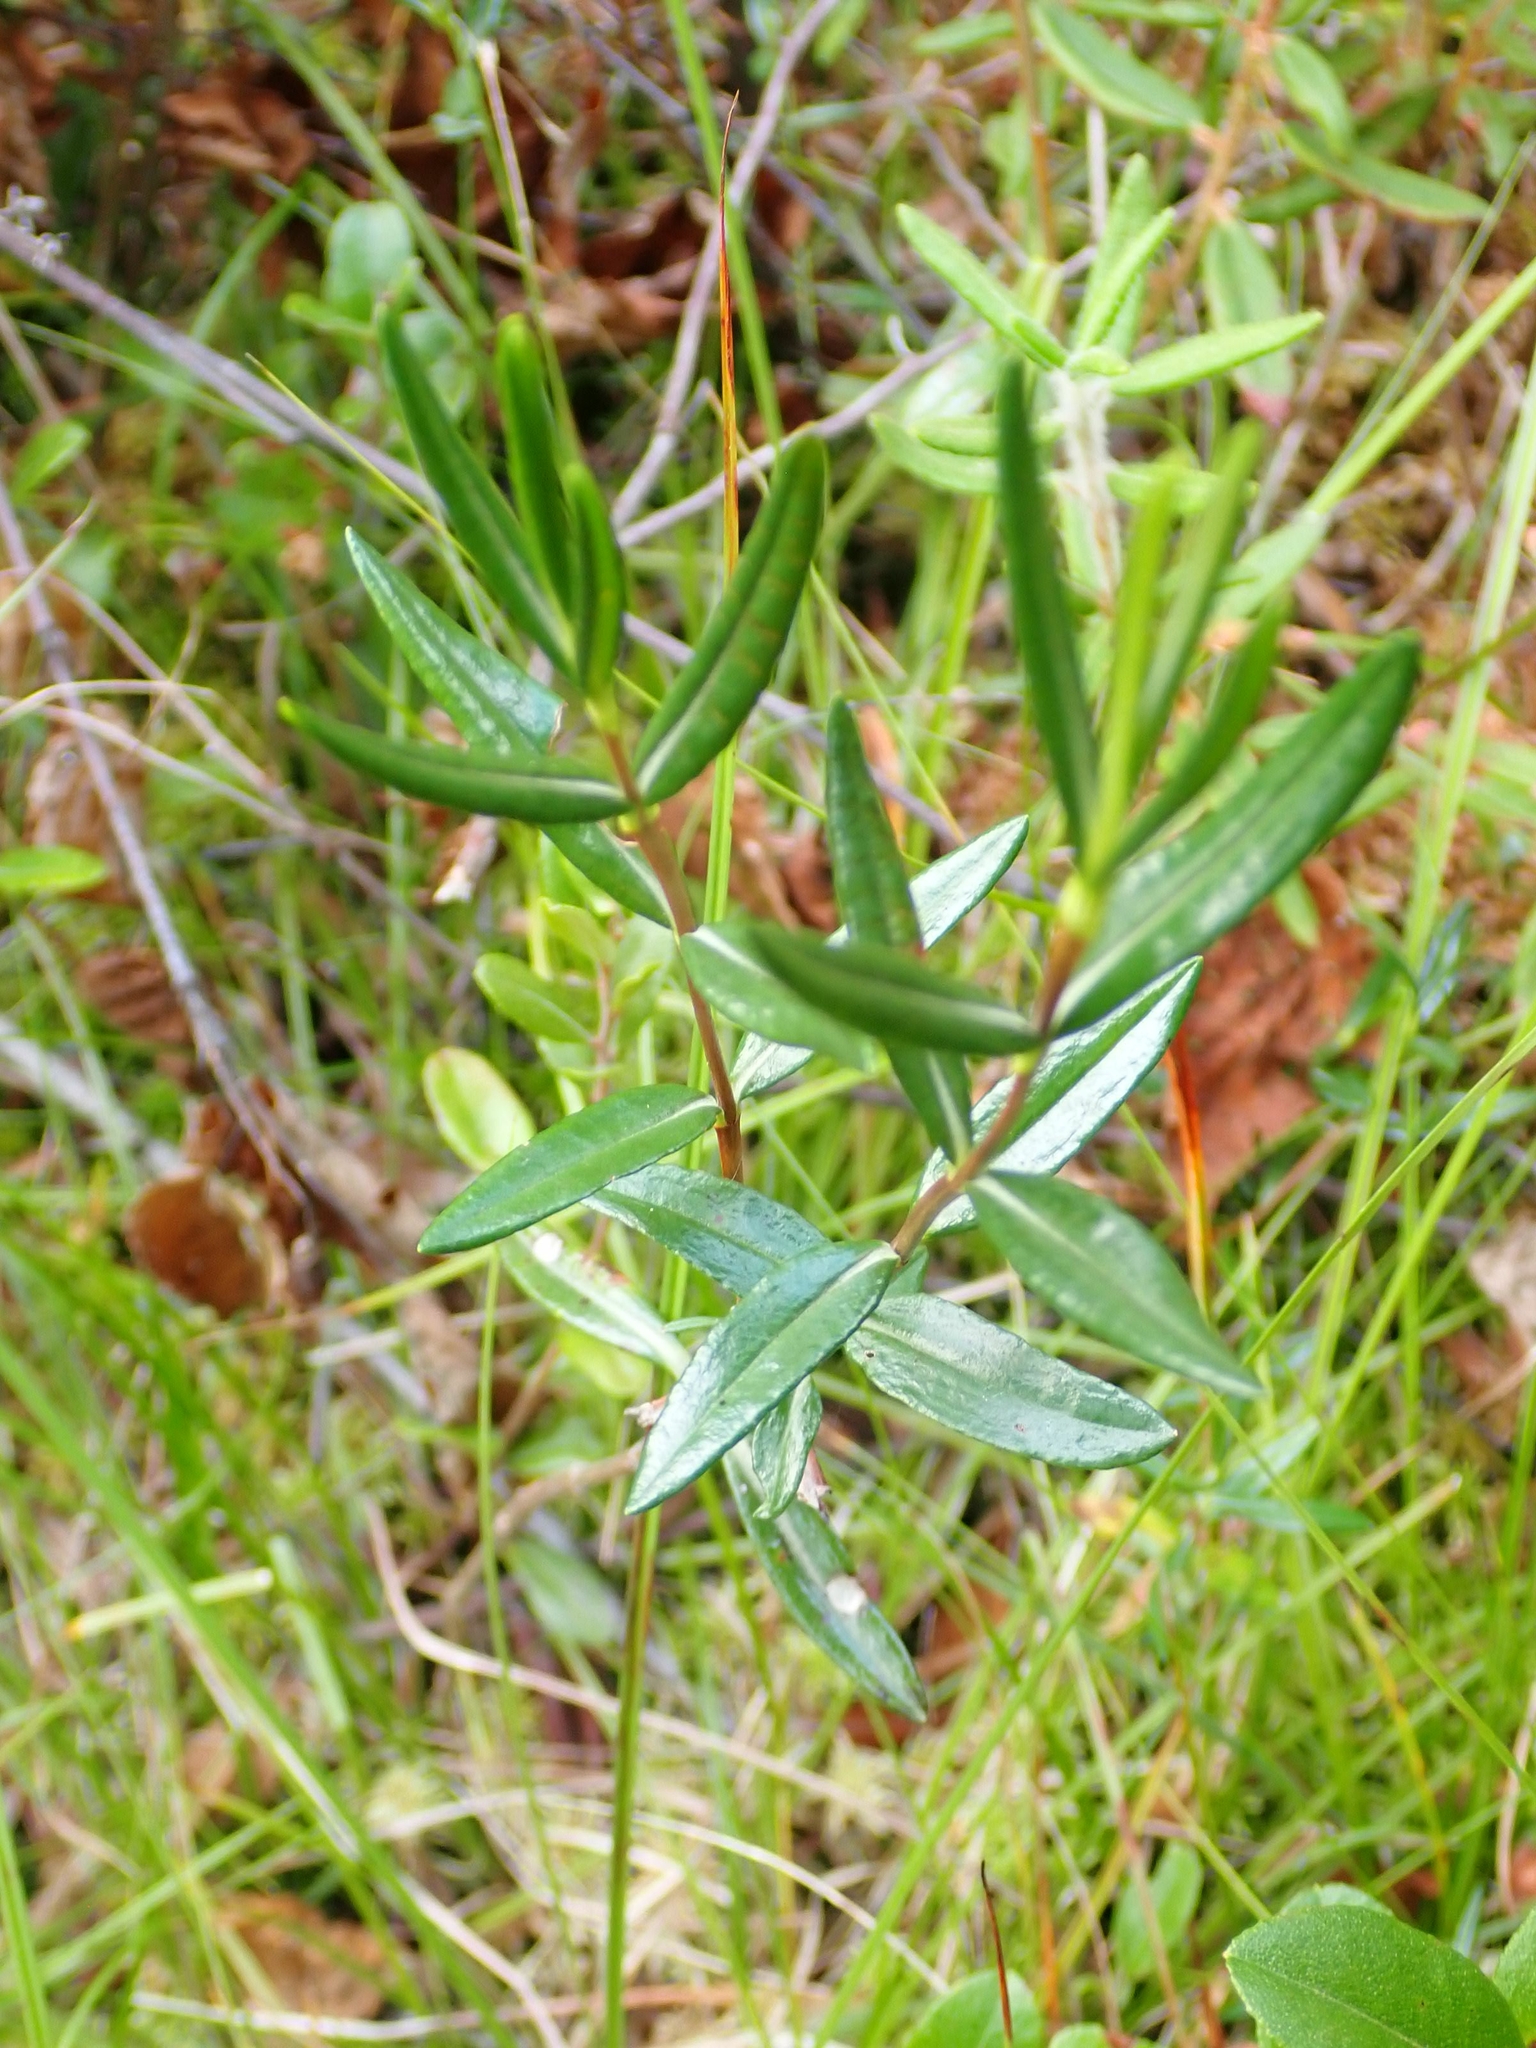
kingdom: Plantae
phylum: Tracheophyta
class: Magnoliopsida
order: Ericales
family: Ericaceae
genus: Kalmia
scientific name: Kalmia polifolia
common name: Bog-laurel
